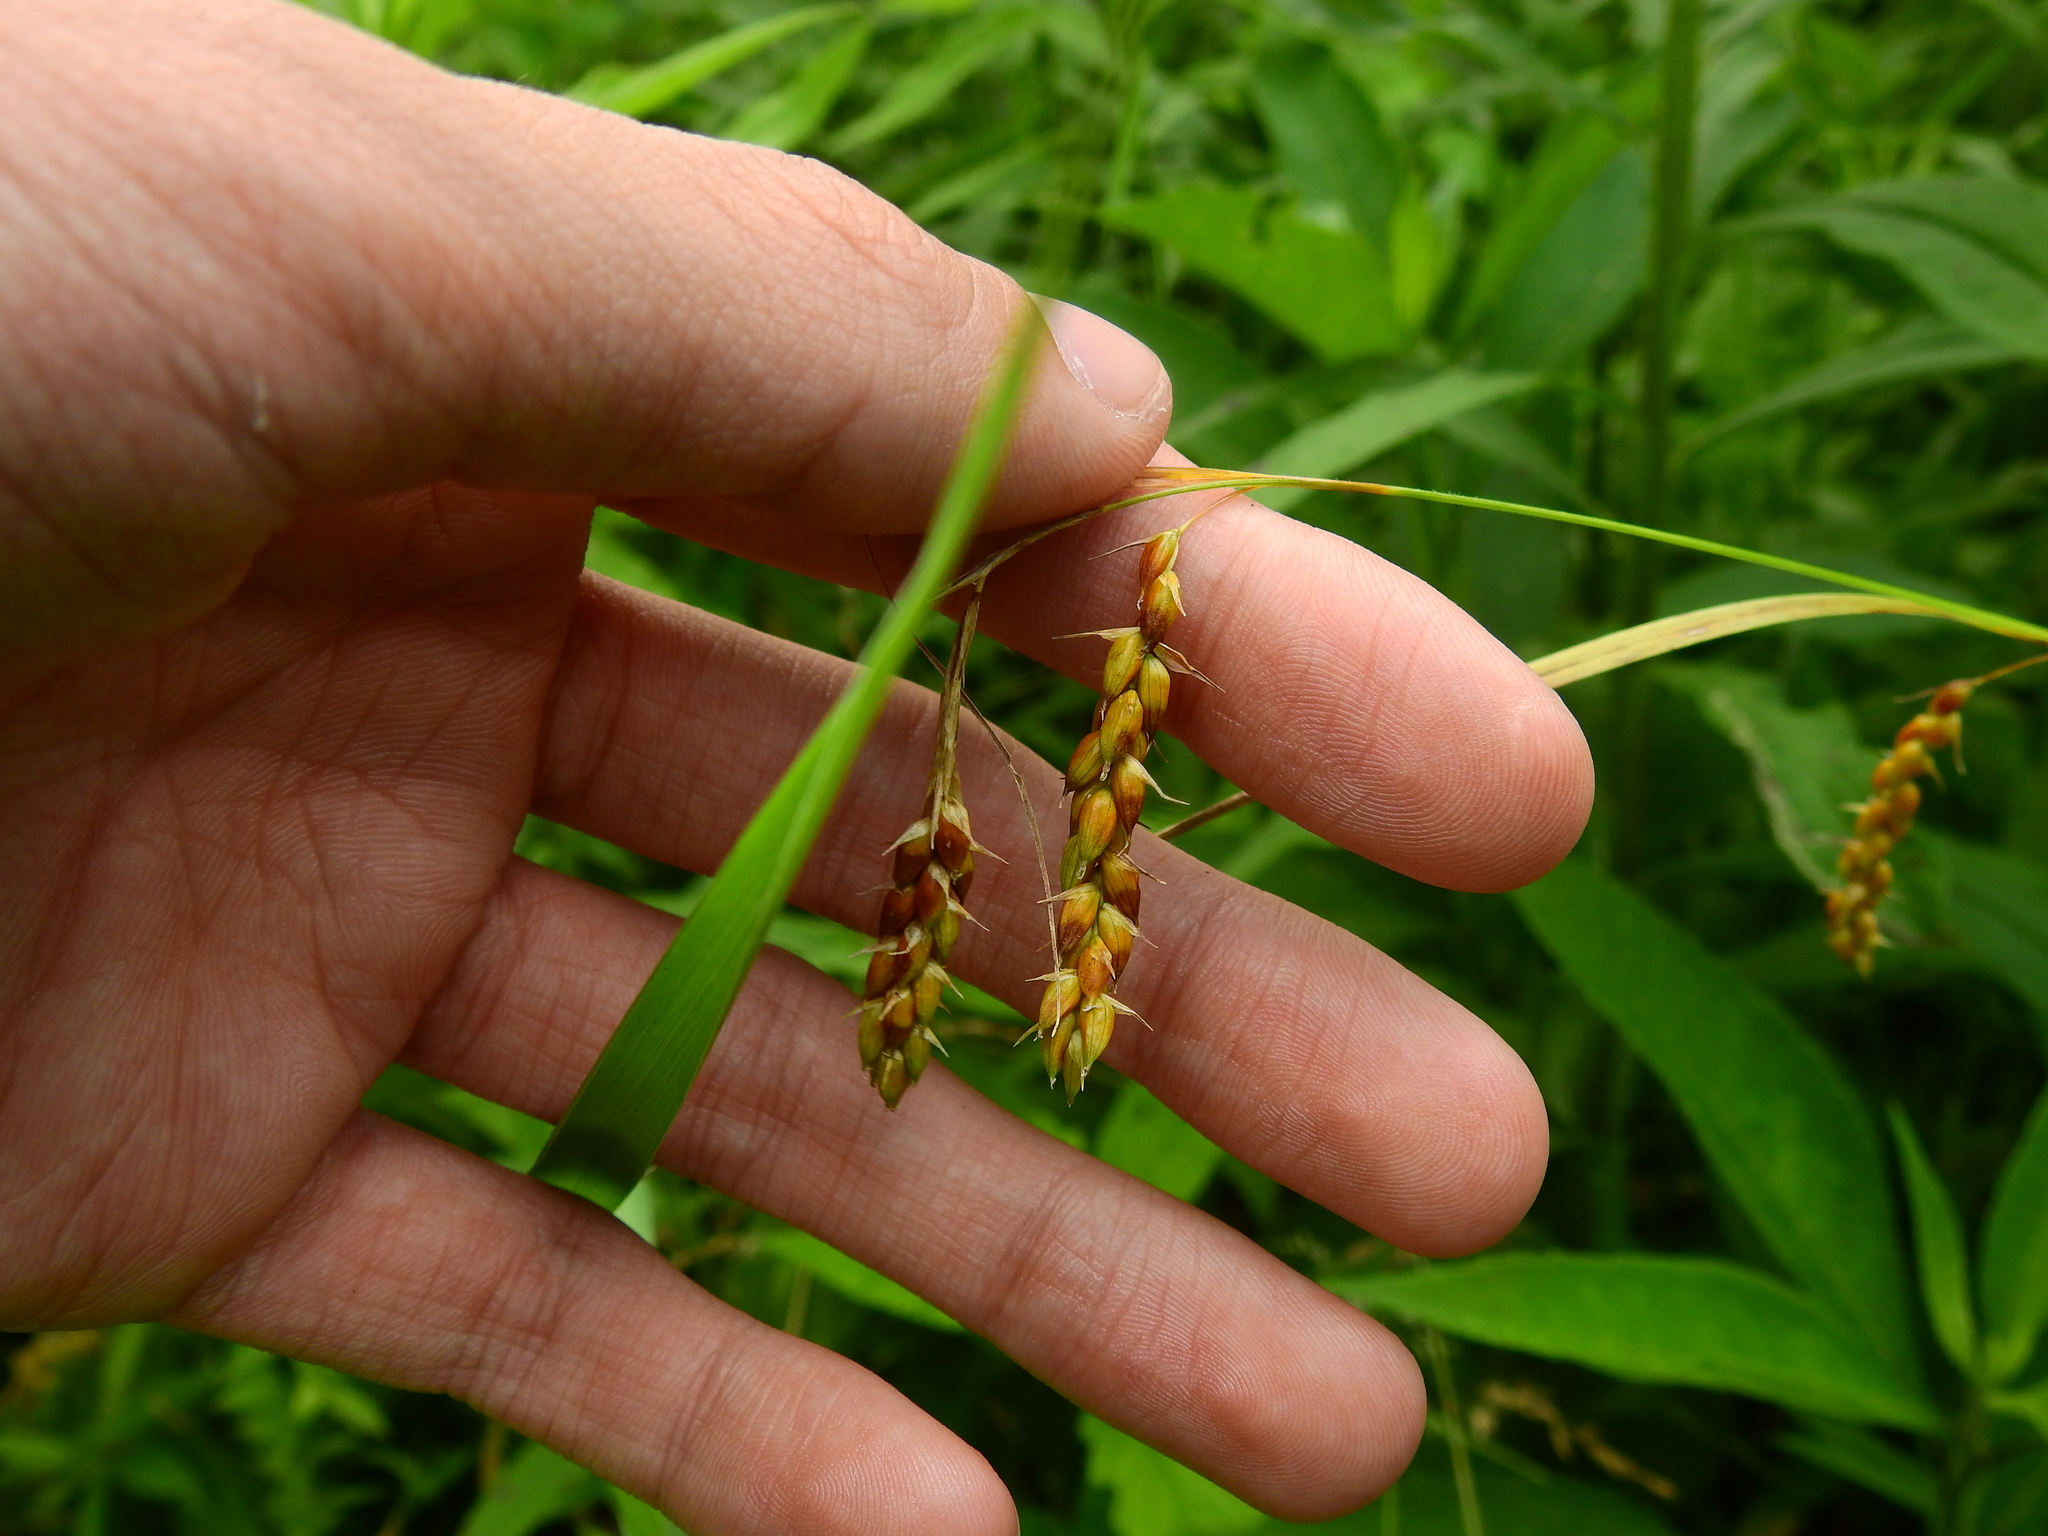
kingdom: Plantae
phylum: Tracheophyta
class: Liliopsida
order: Poales
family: Cyperaceae
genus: Carex
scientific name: Carex davisii
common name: Davis' sedge
